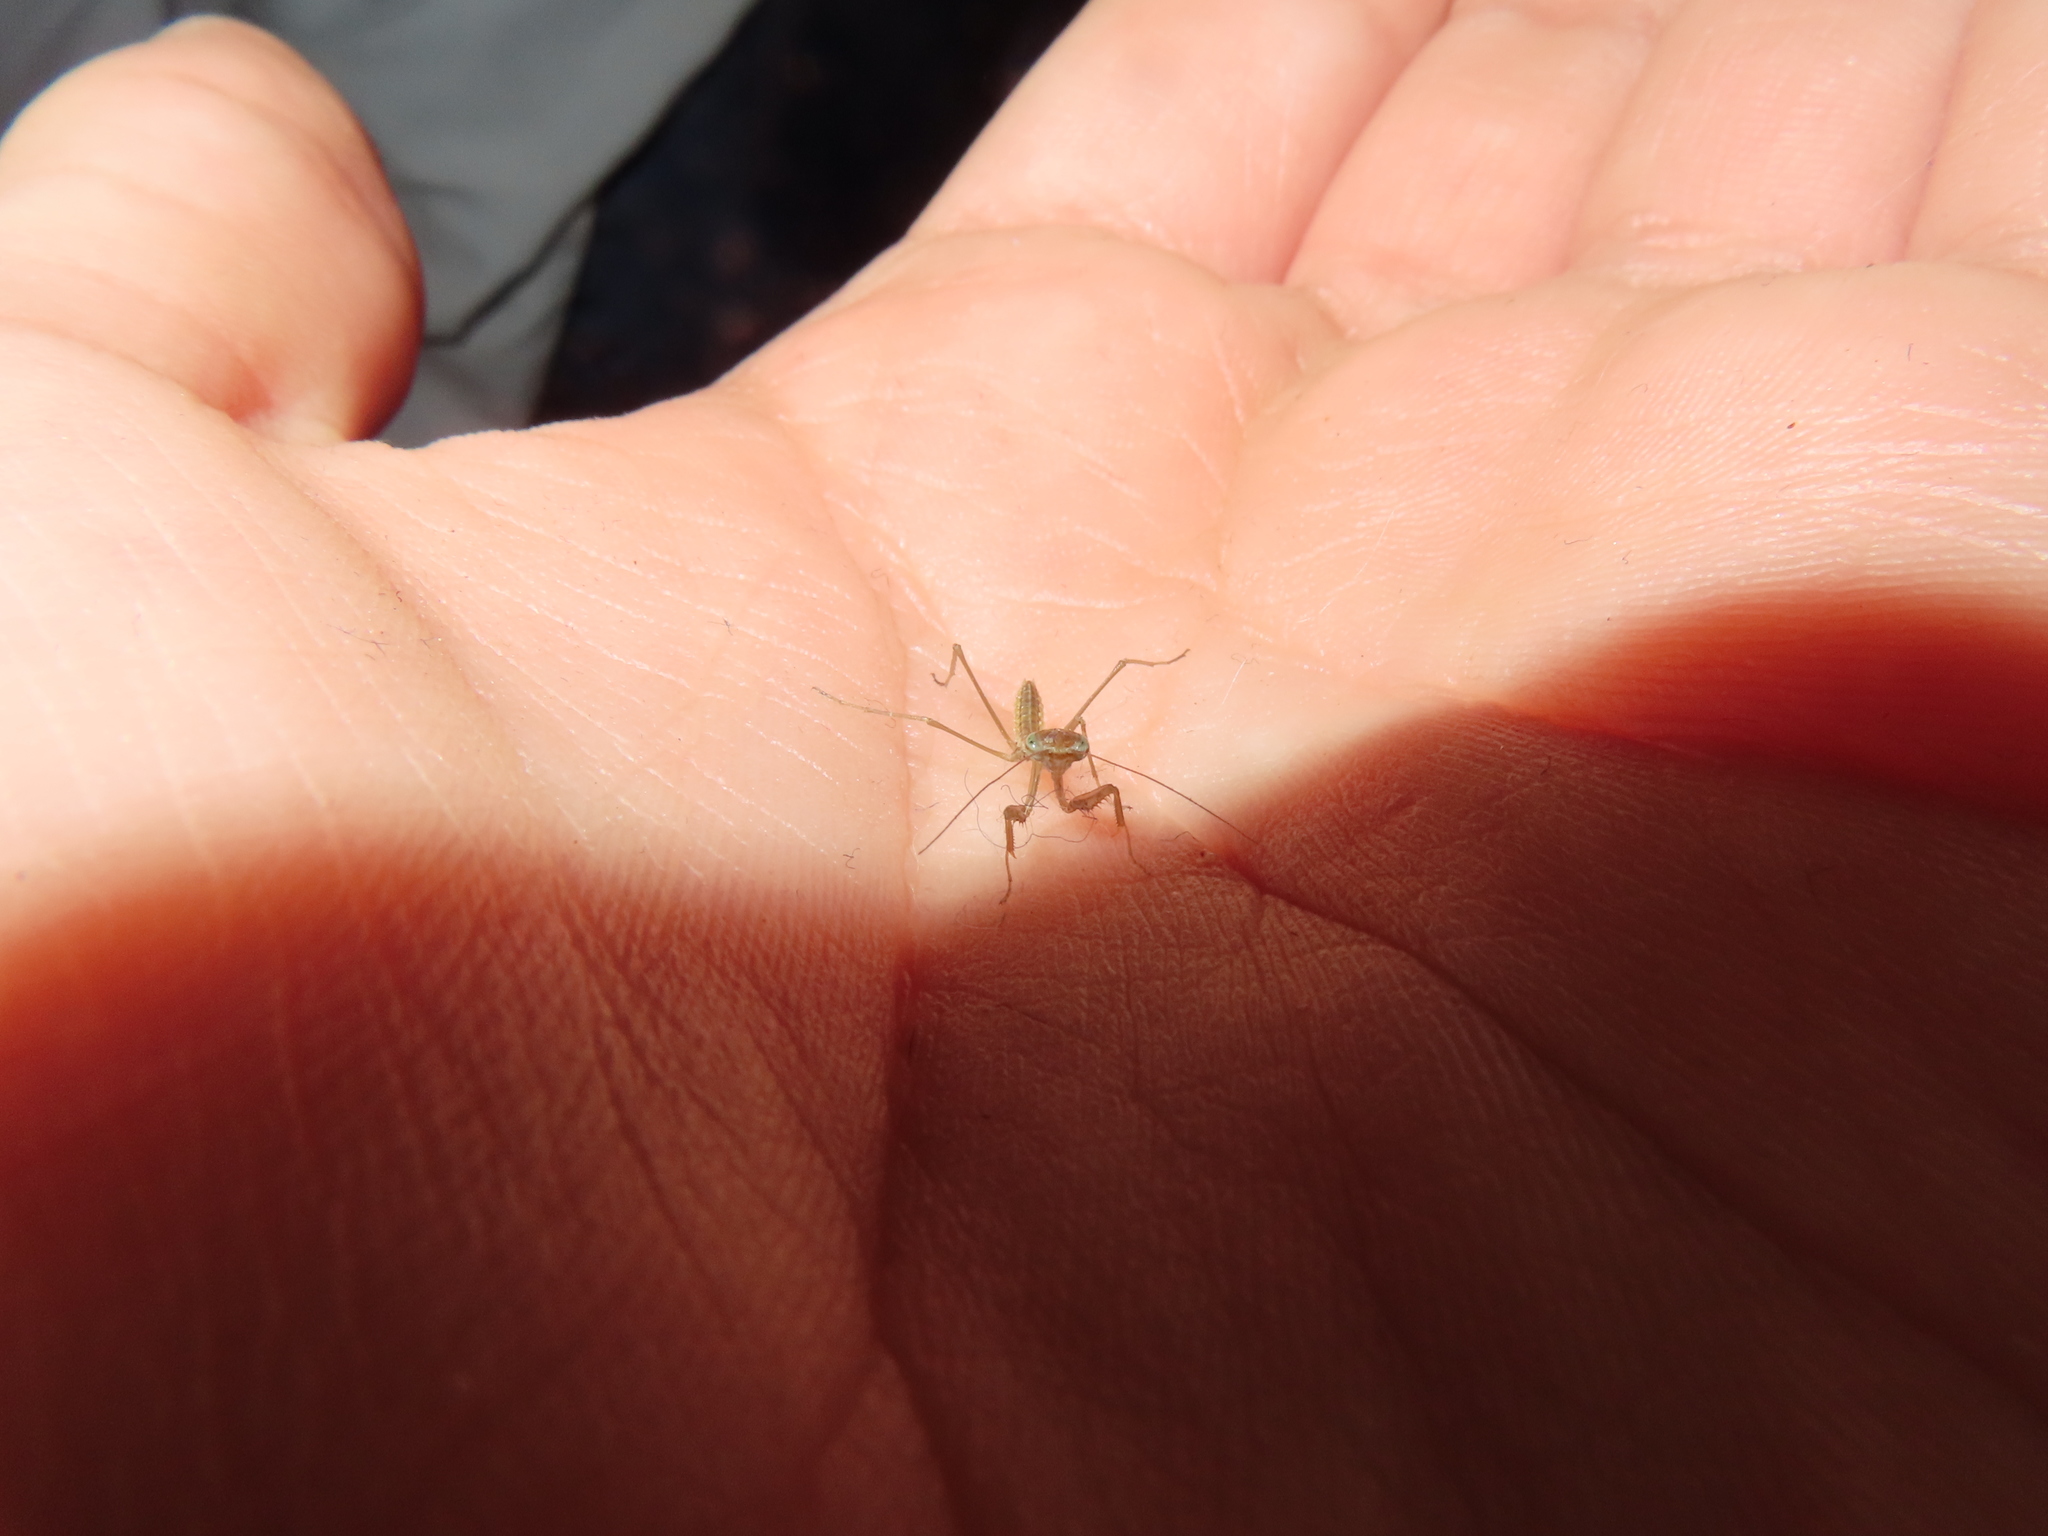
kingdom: Animalia
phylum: Arthropoda
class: Insecta
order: Mantodea
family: Mantidae
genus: Tenodera
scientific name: Tenodera sinensis
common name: Chinese mantis
